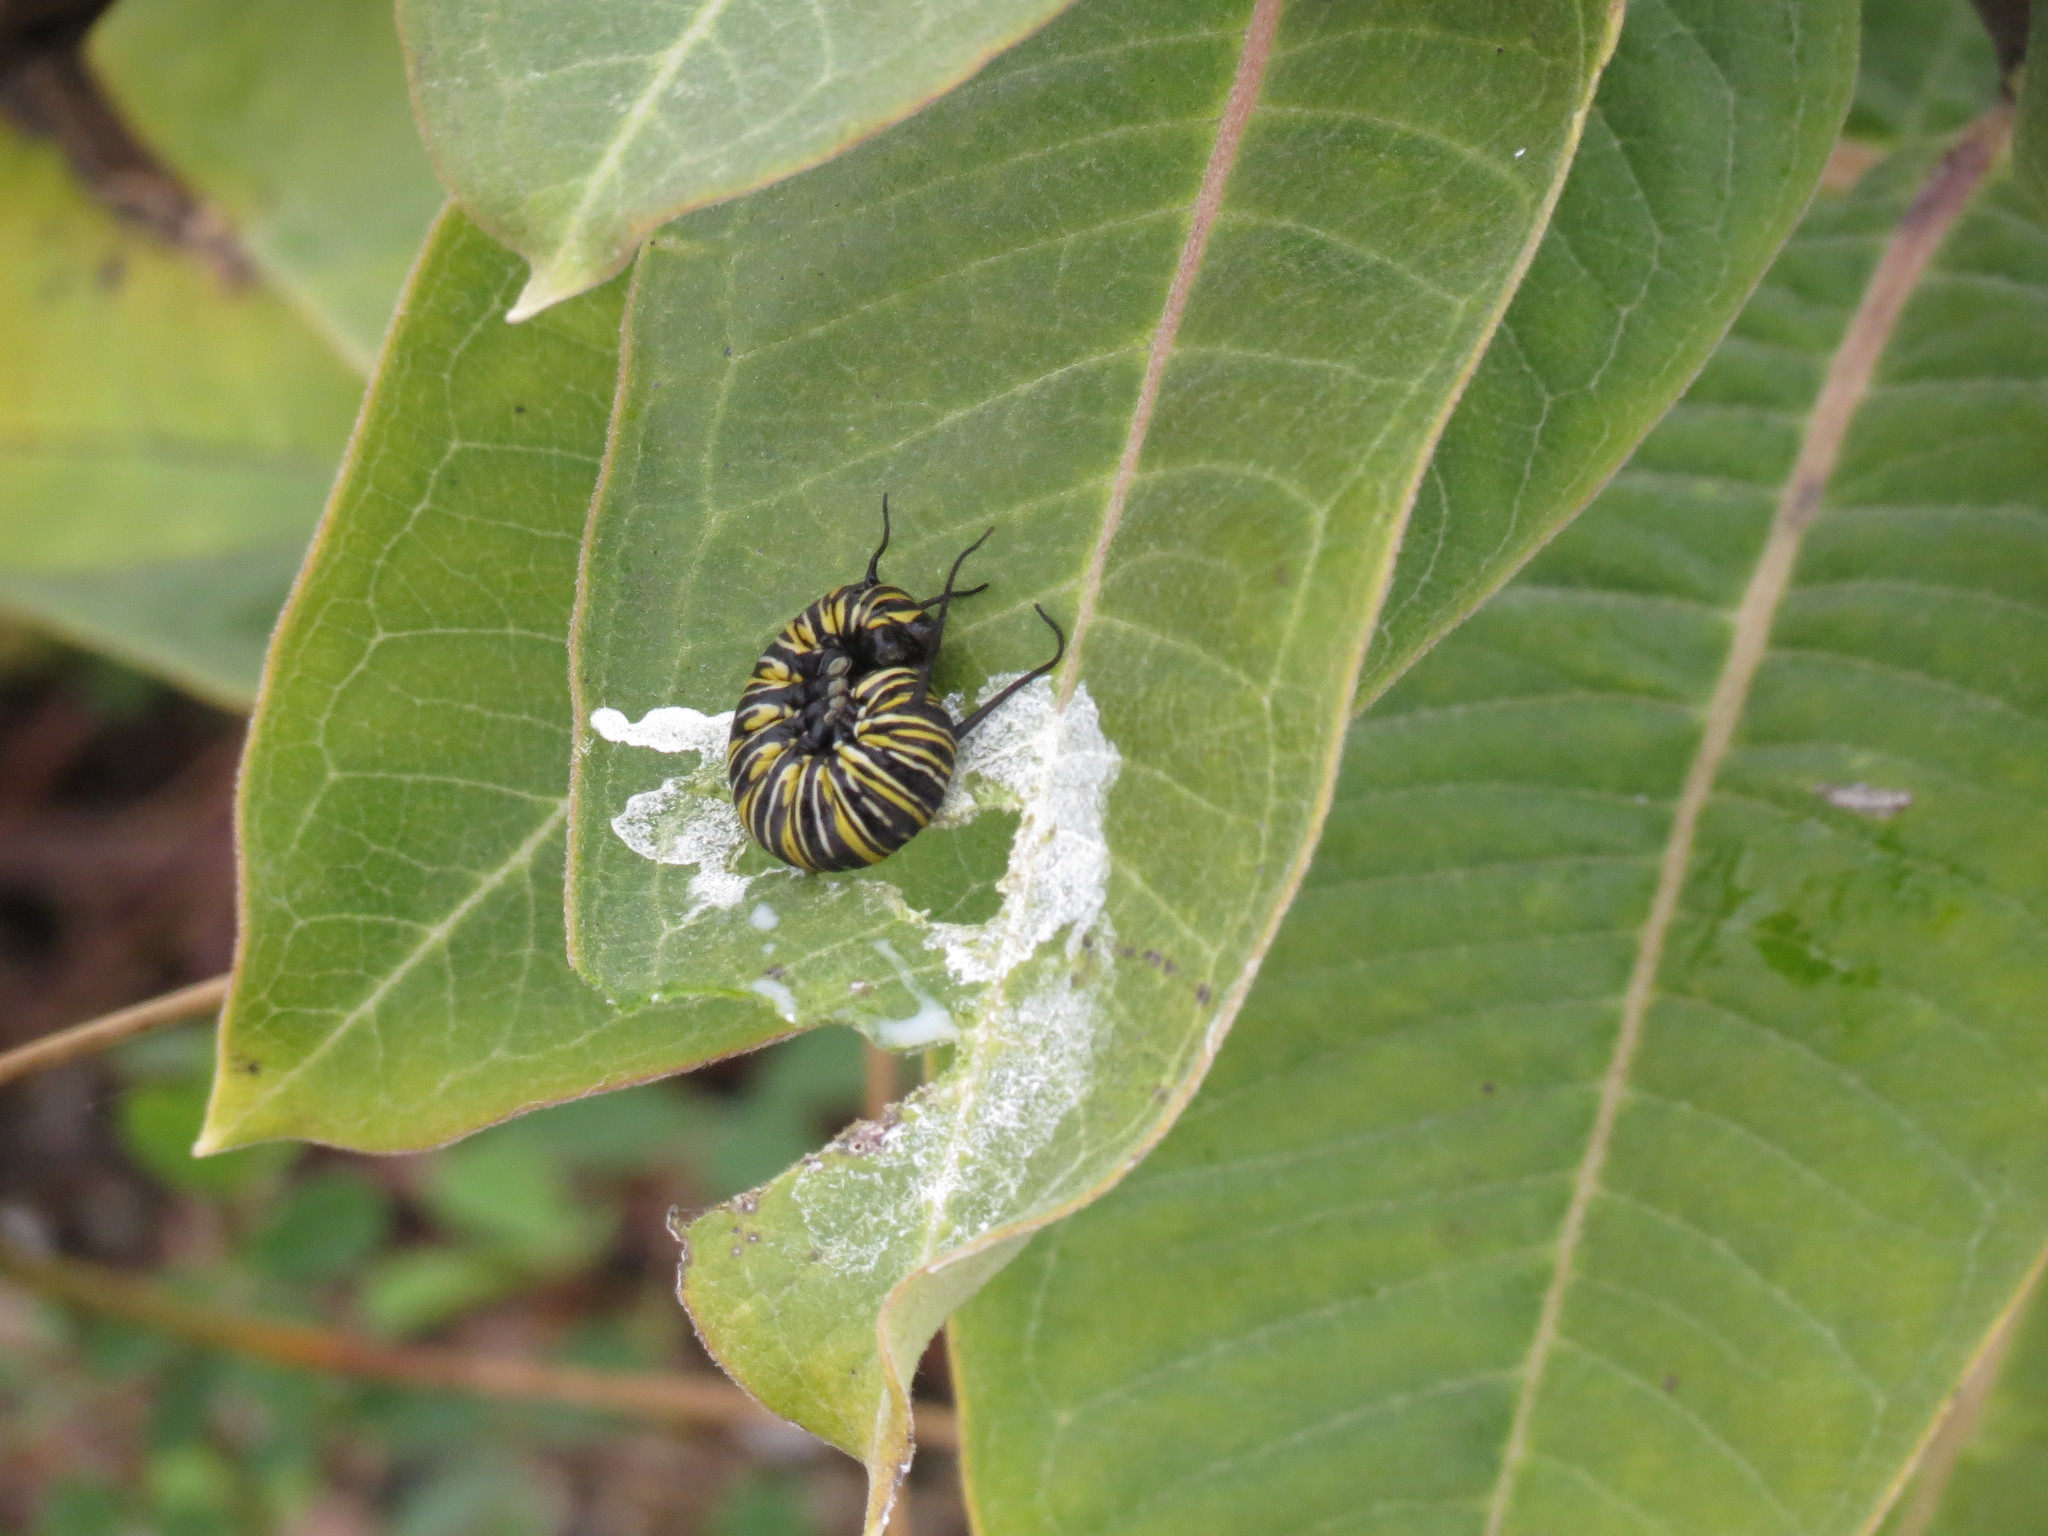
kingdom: Animalia
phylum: Arthropoda
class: Insecta
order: Lepidoptera
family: Nymphalidae
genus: Danaus
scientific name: Danaus plexippus
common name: Monarch
